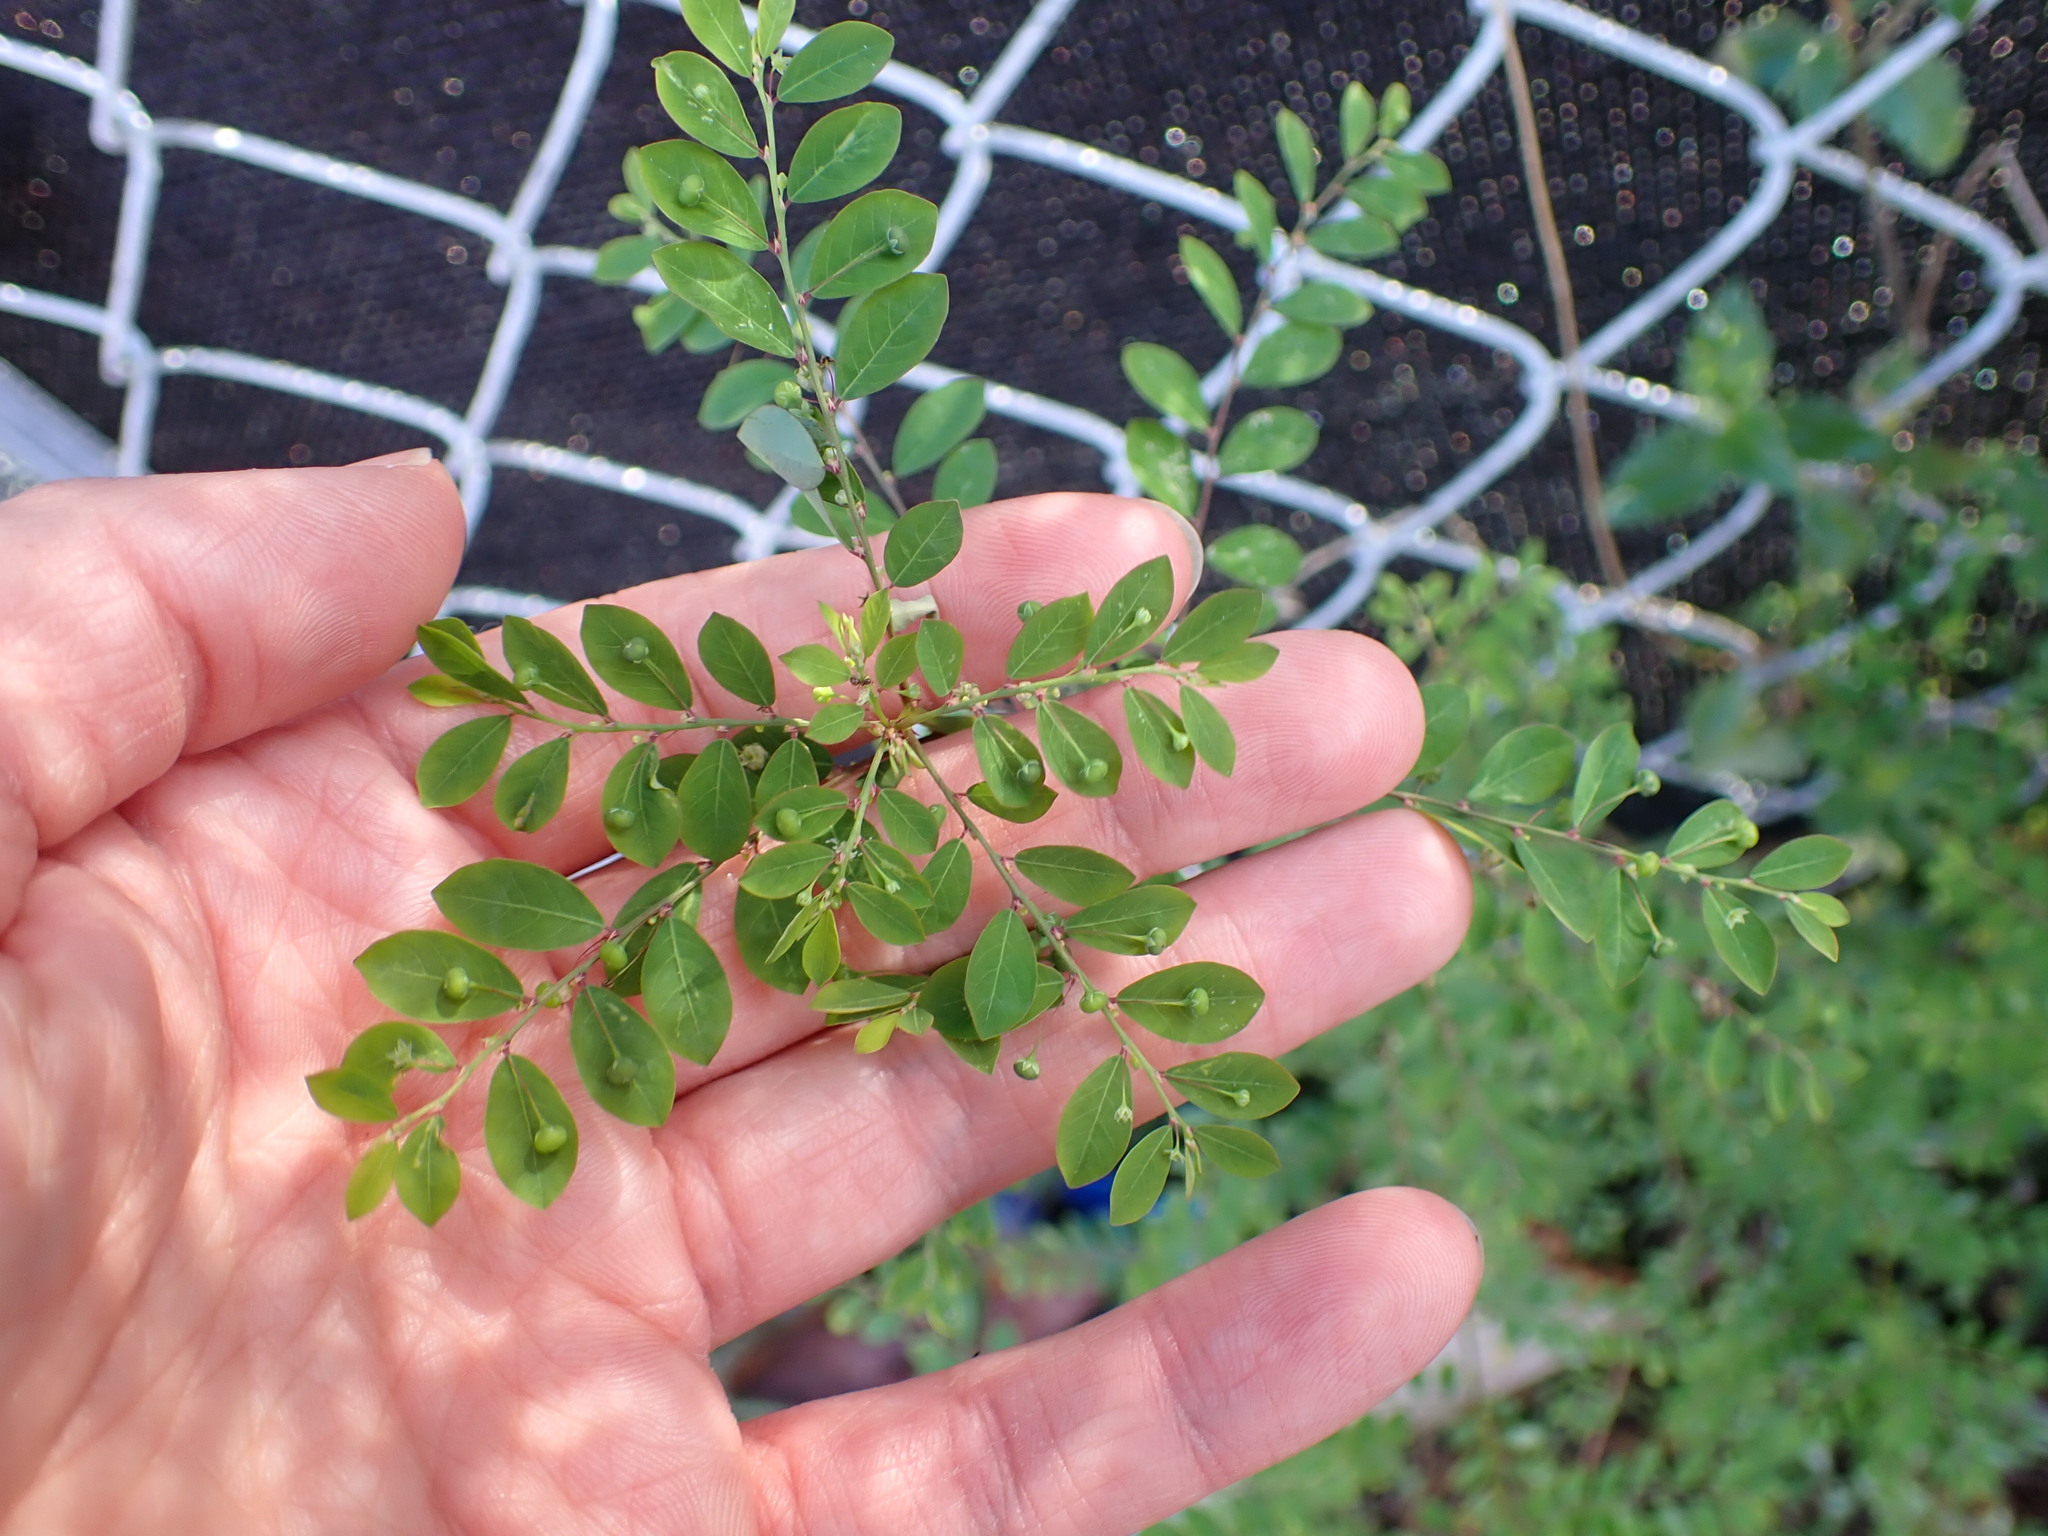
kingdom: Plantae
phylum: Tracheophyta
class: Magnoliopsida
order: Malpighiales
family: Phyllanthaceae
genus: Phyllanthus
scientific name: Phyllanthus tenellus
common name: Mascarene island leaf-flower
